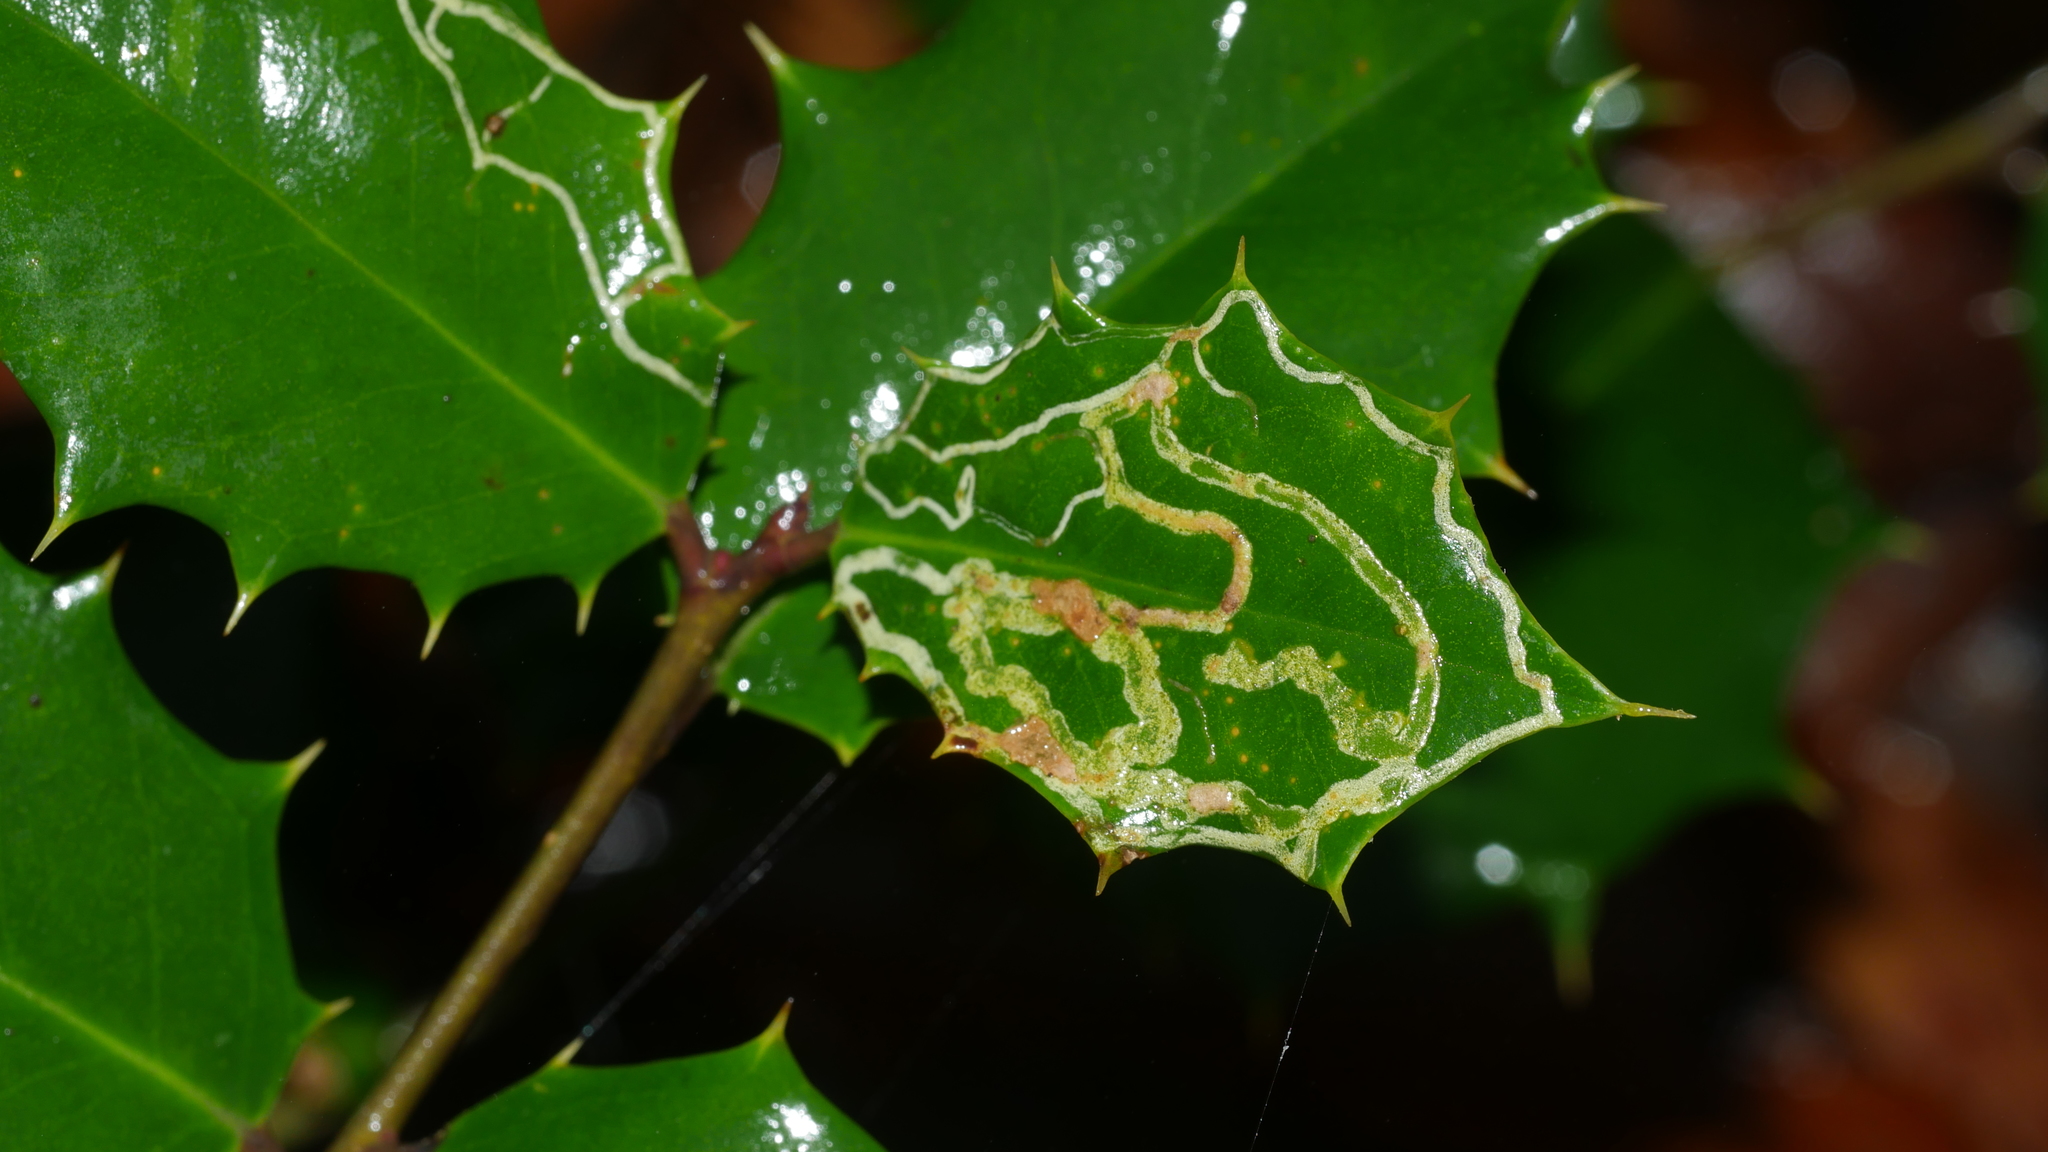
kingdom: Animalia
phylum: Arthropoda
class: Insecta
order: Diptera
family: Agromyzidae
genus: Phytomyza
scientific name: Phytomyza opacae
